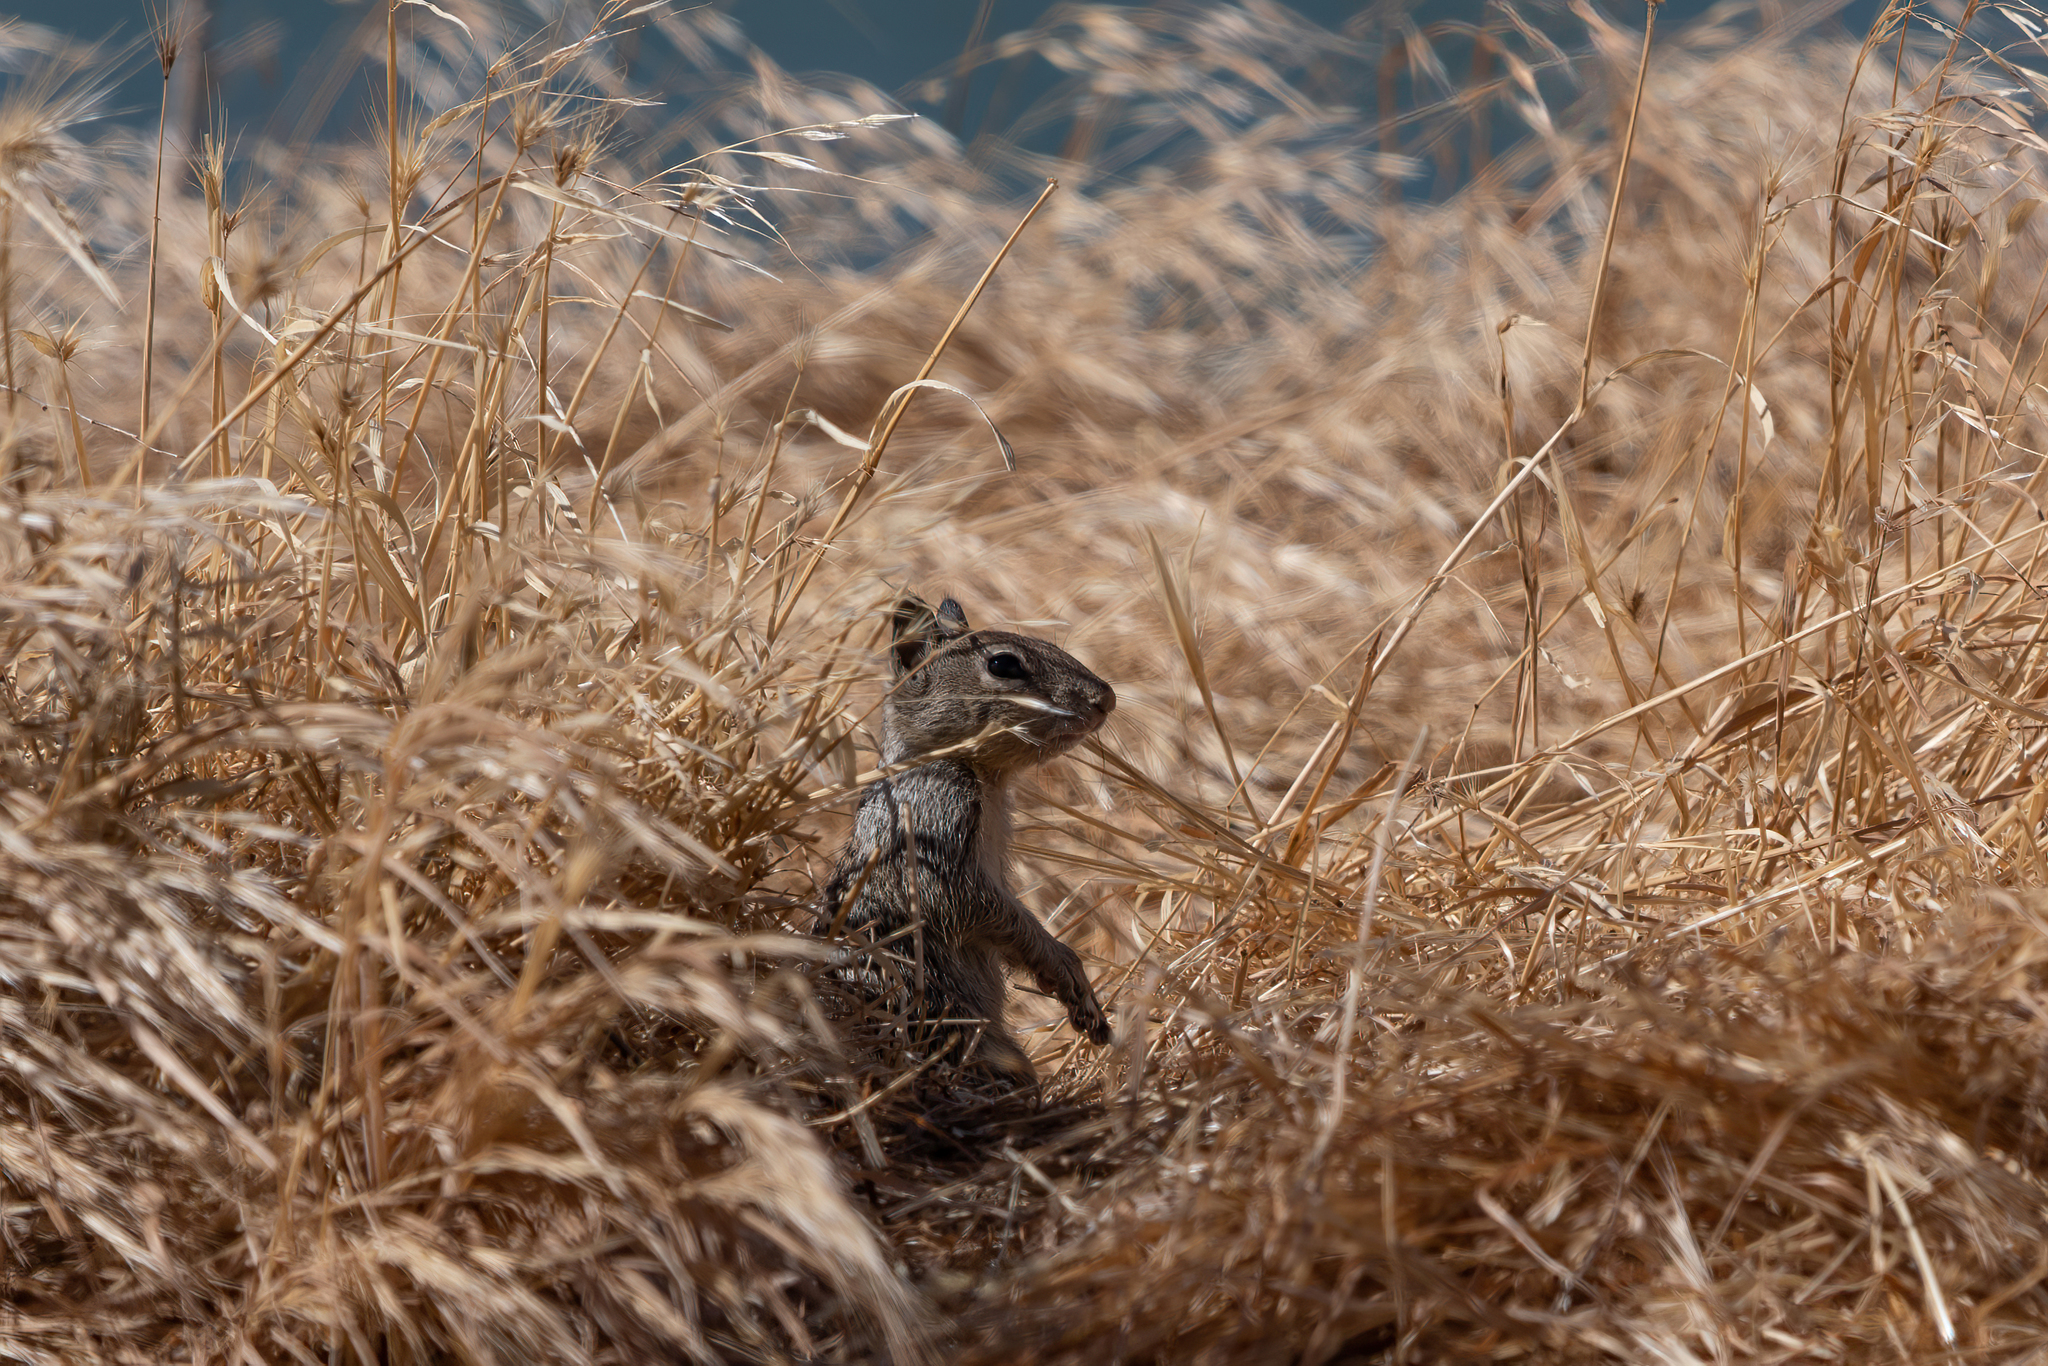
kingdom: Animalia
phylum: Chordata
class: Mammalia
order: Rodentia
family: Sciuridae
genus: Otospermophilus
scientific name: Otospermophilus beecheyi
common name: California ground squirrel
